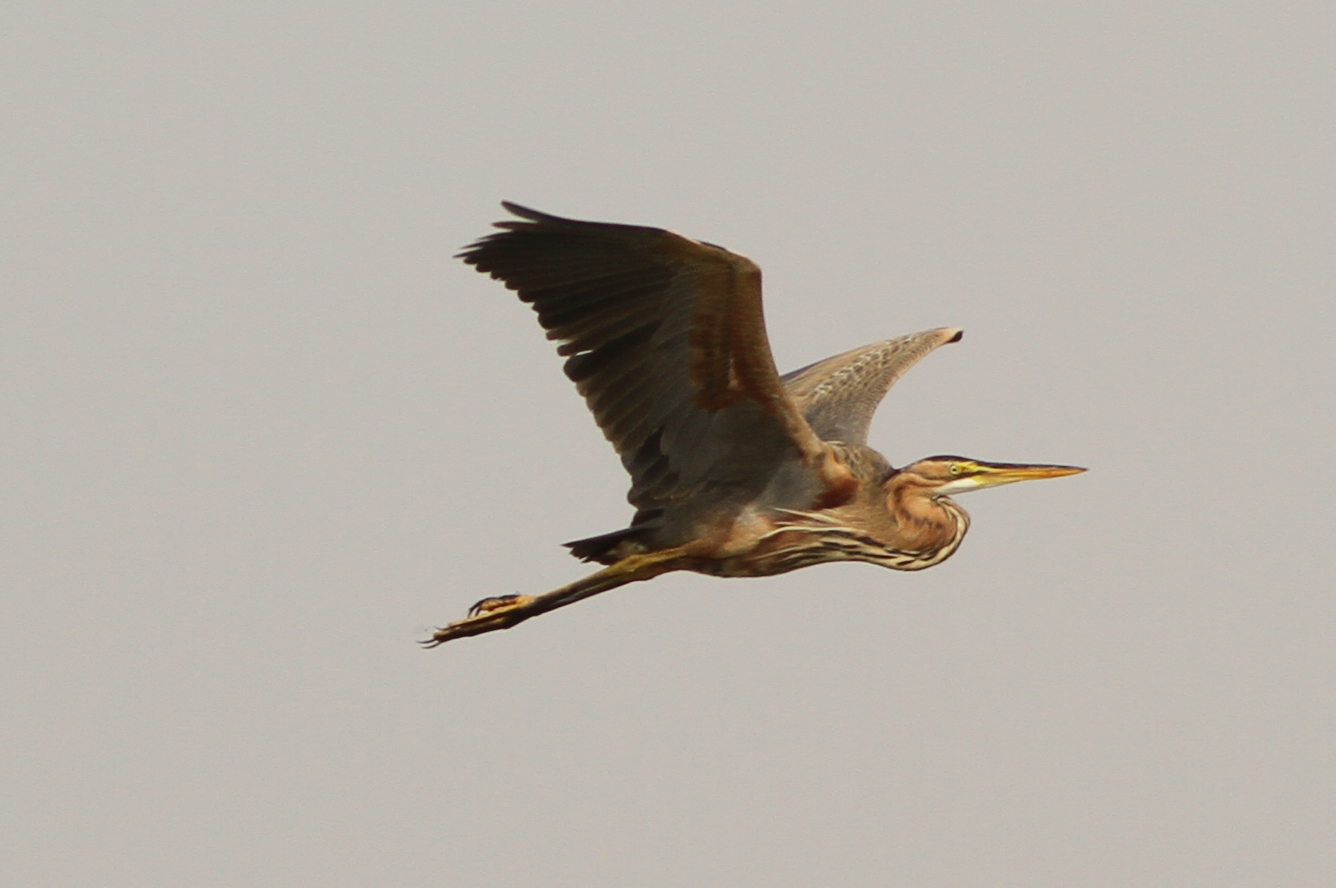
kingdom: Animalia
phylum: Chordata
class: Aves
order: Pelecaniformes
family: Ardeidae
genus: Ardea
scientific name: Ardea purpurea
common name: Purple heron
